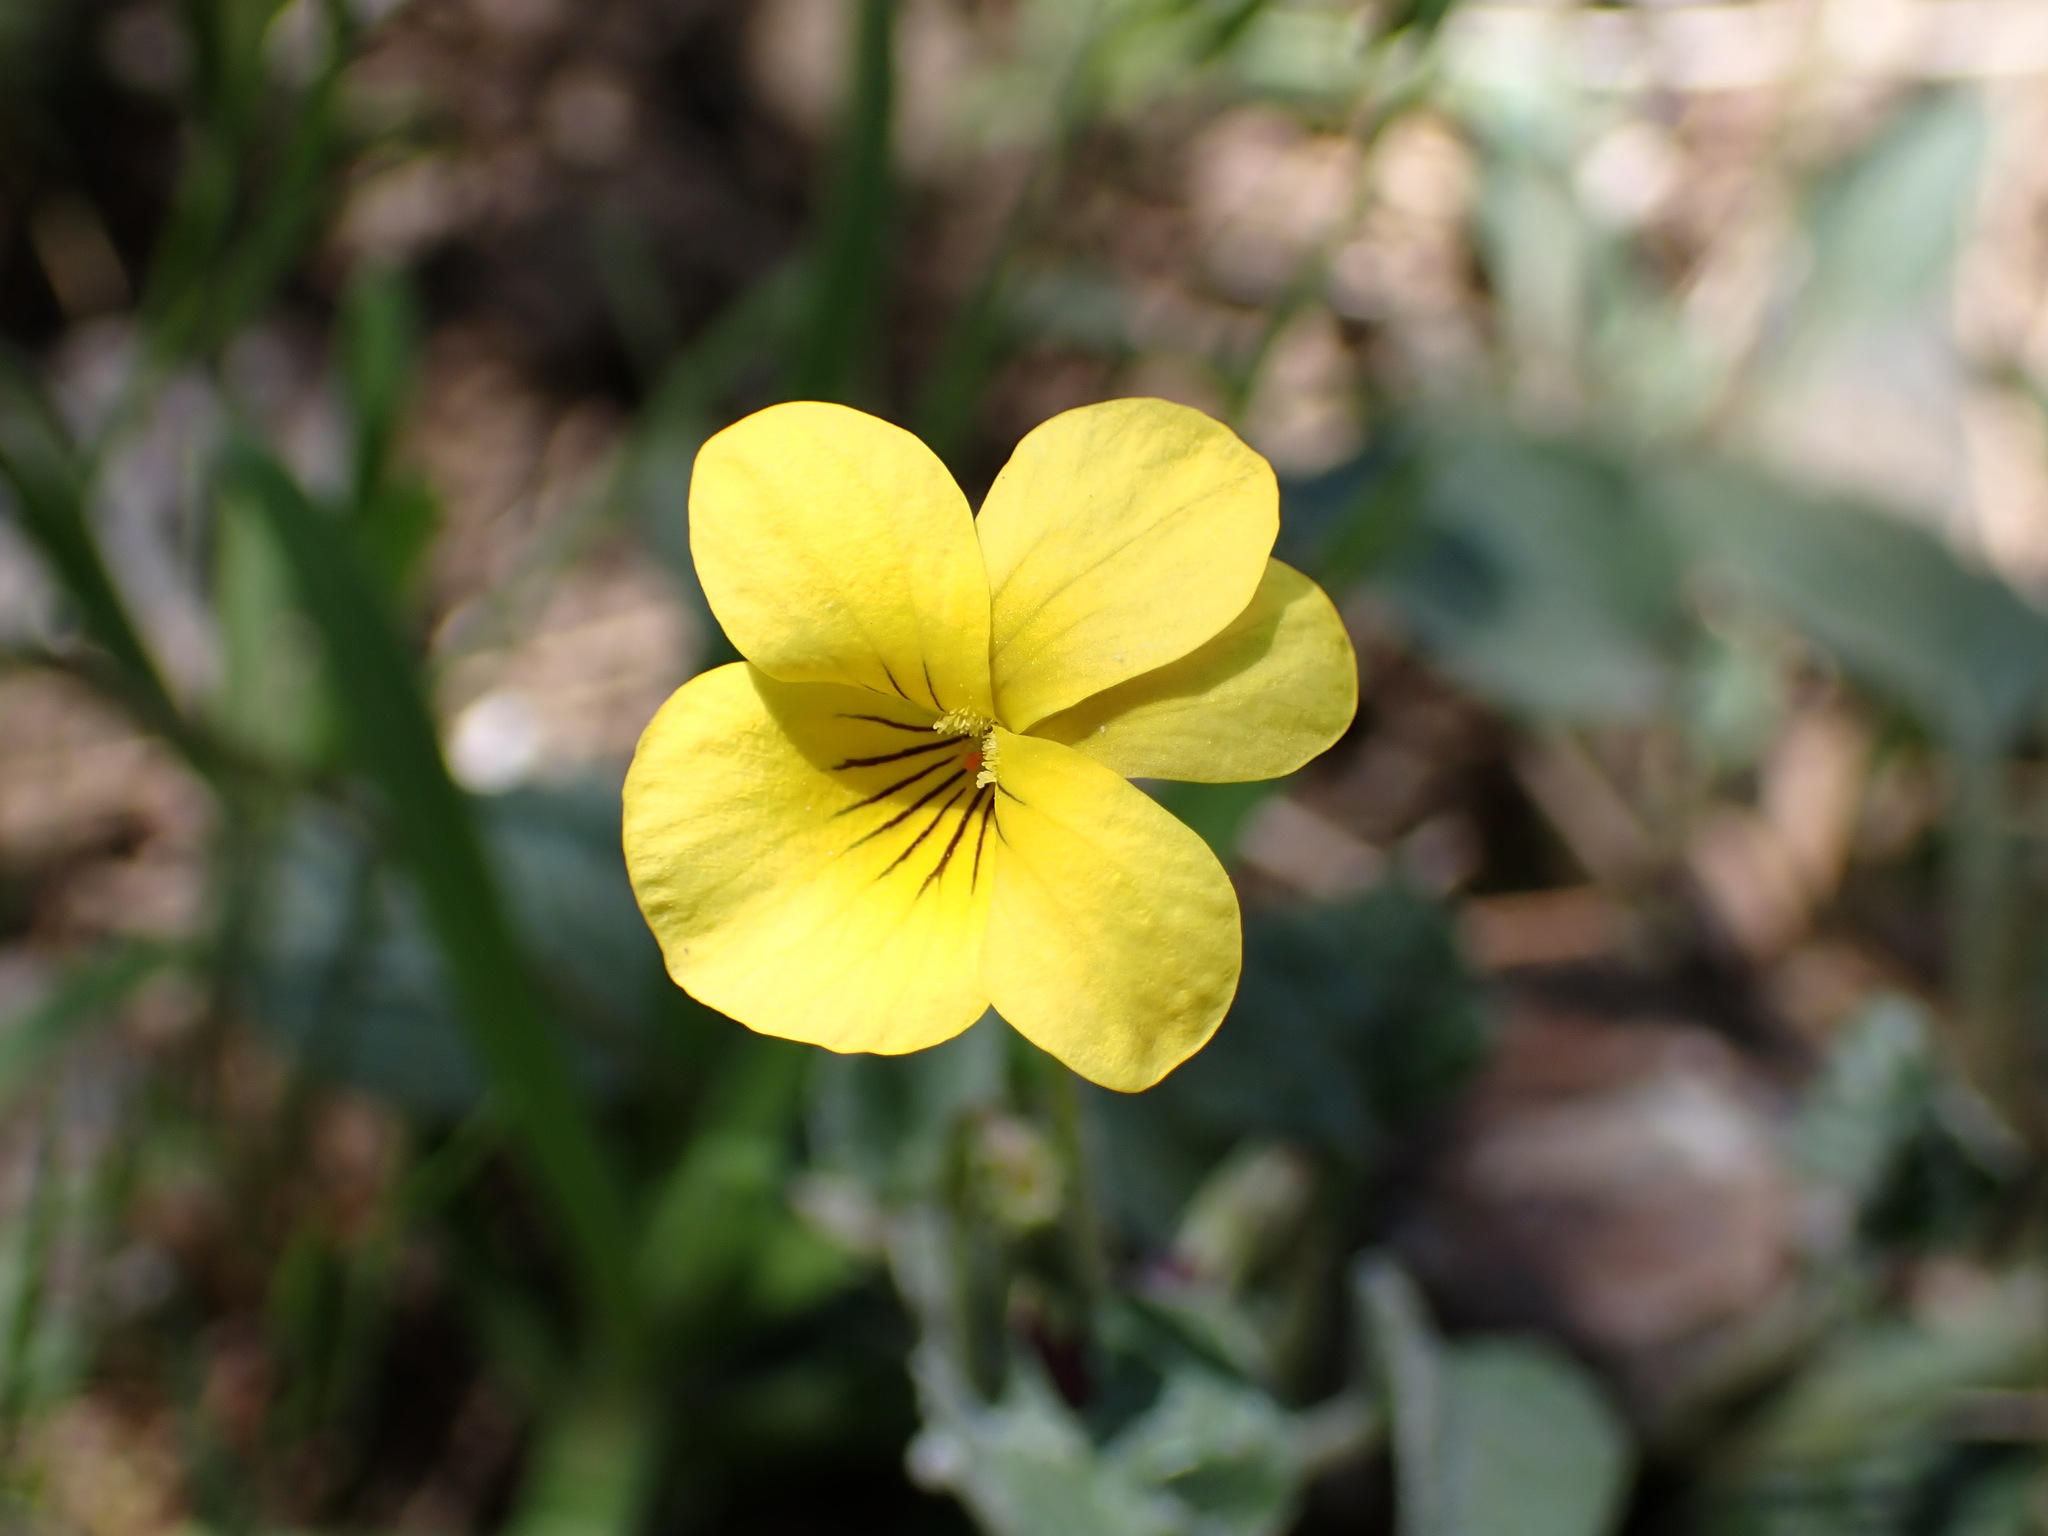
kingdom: Plantae
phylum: Tracheophyta
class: Magnoliopsida
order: Malpighiales
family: Violaceae
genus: Viola
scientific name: Viola purpurea
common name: Pine violet
